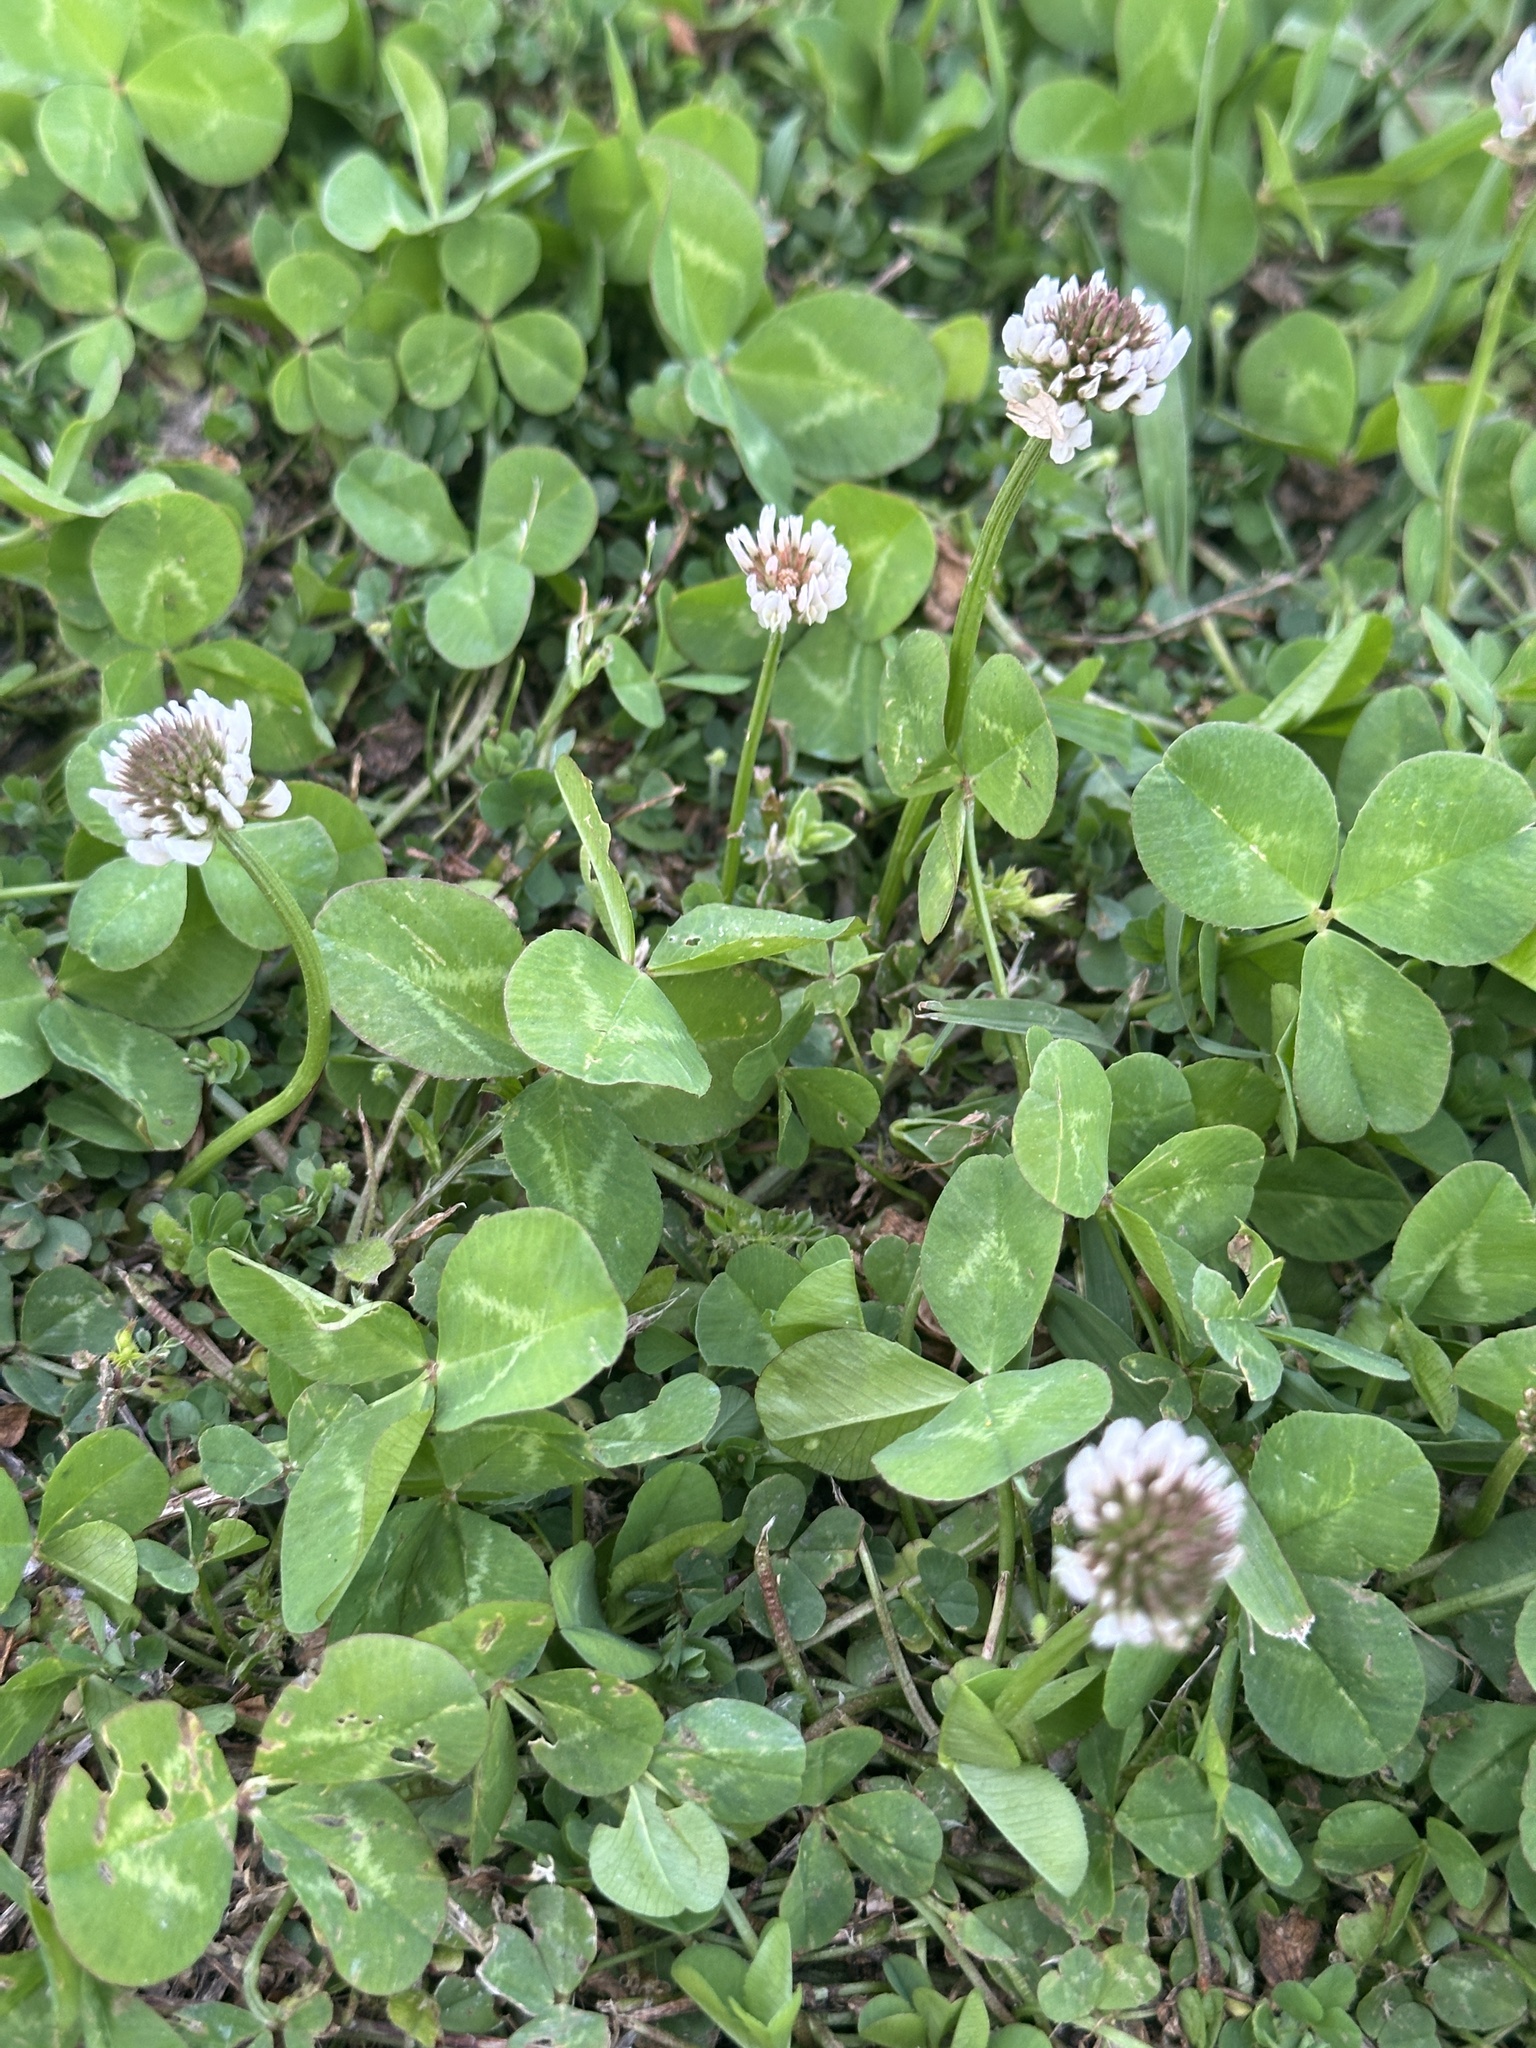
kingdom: Plantae
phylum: Tracheophyta
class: Magnoliopsida
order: Fabales
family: Fabaceae
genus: Trifolium
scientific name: Trifolium repens
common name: White clover
